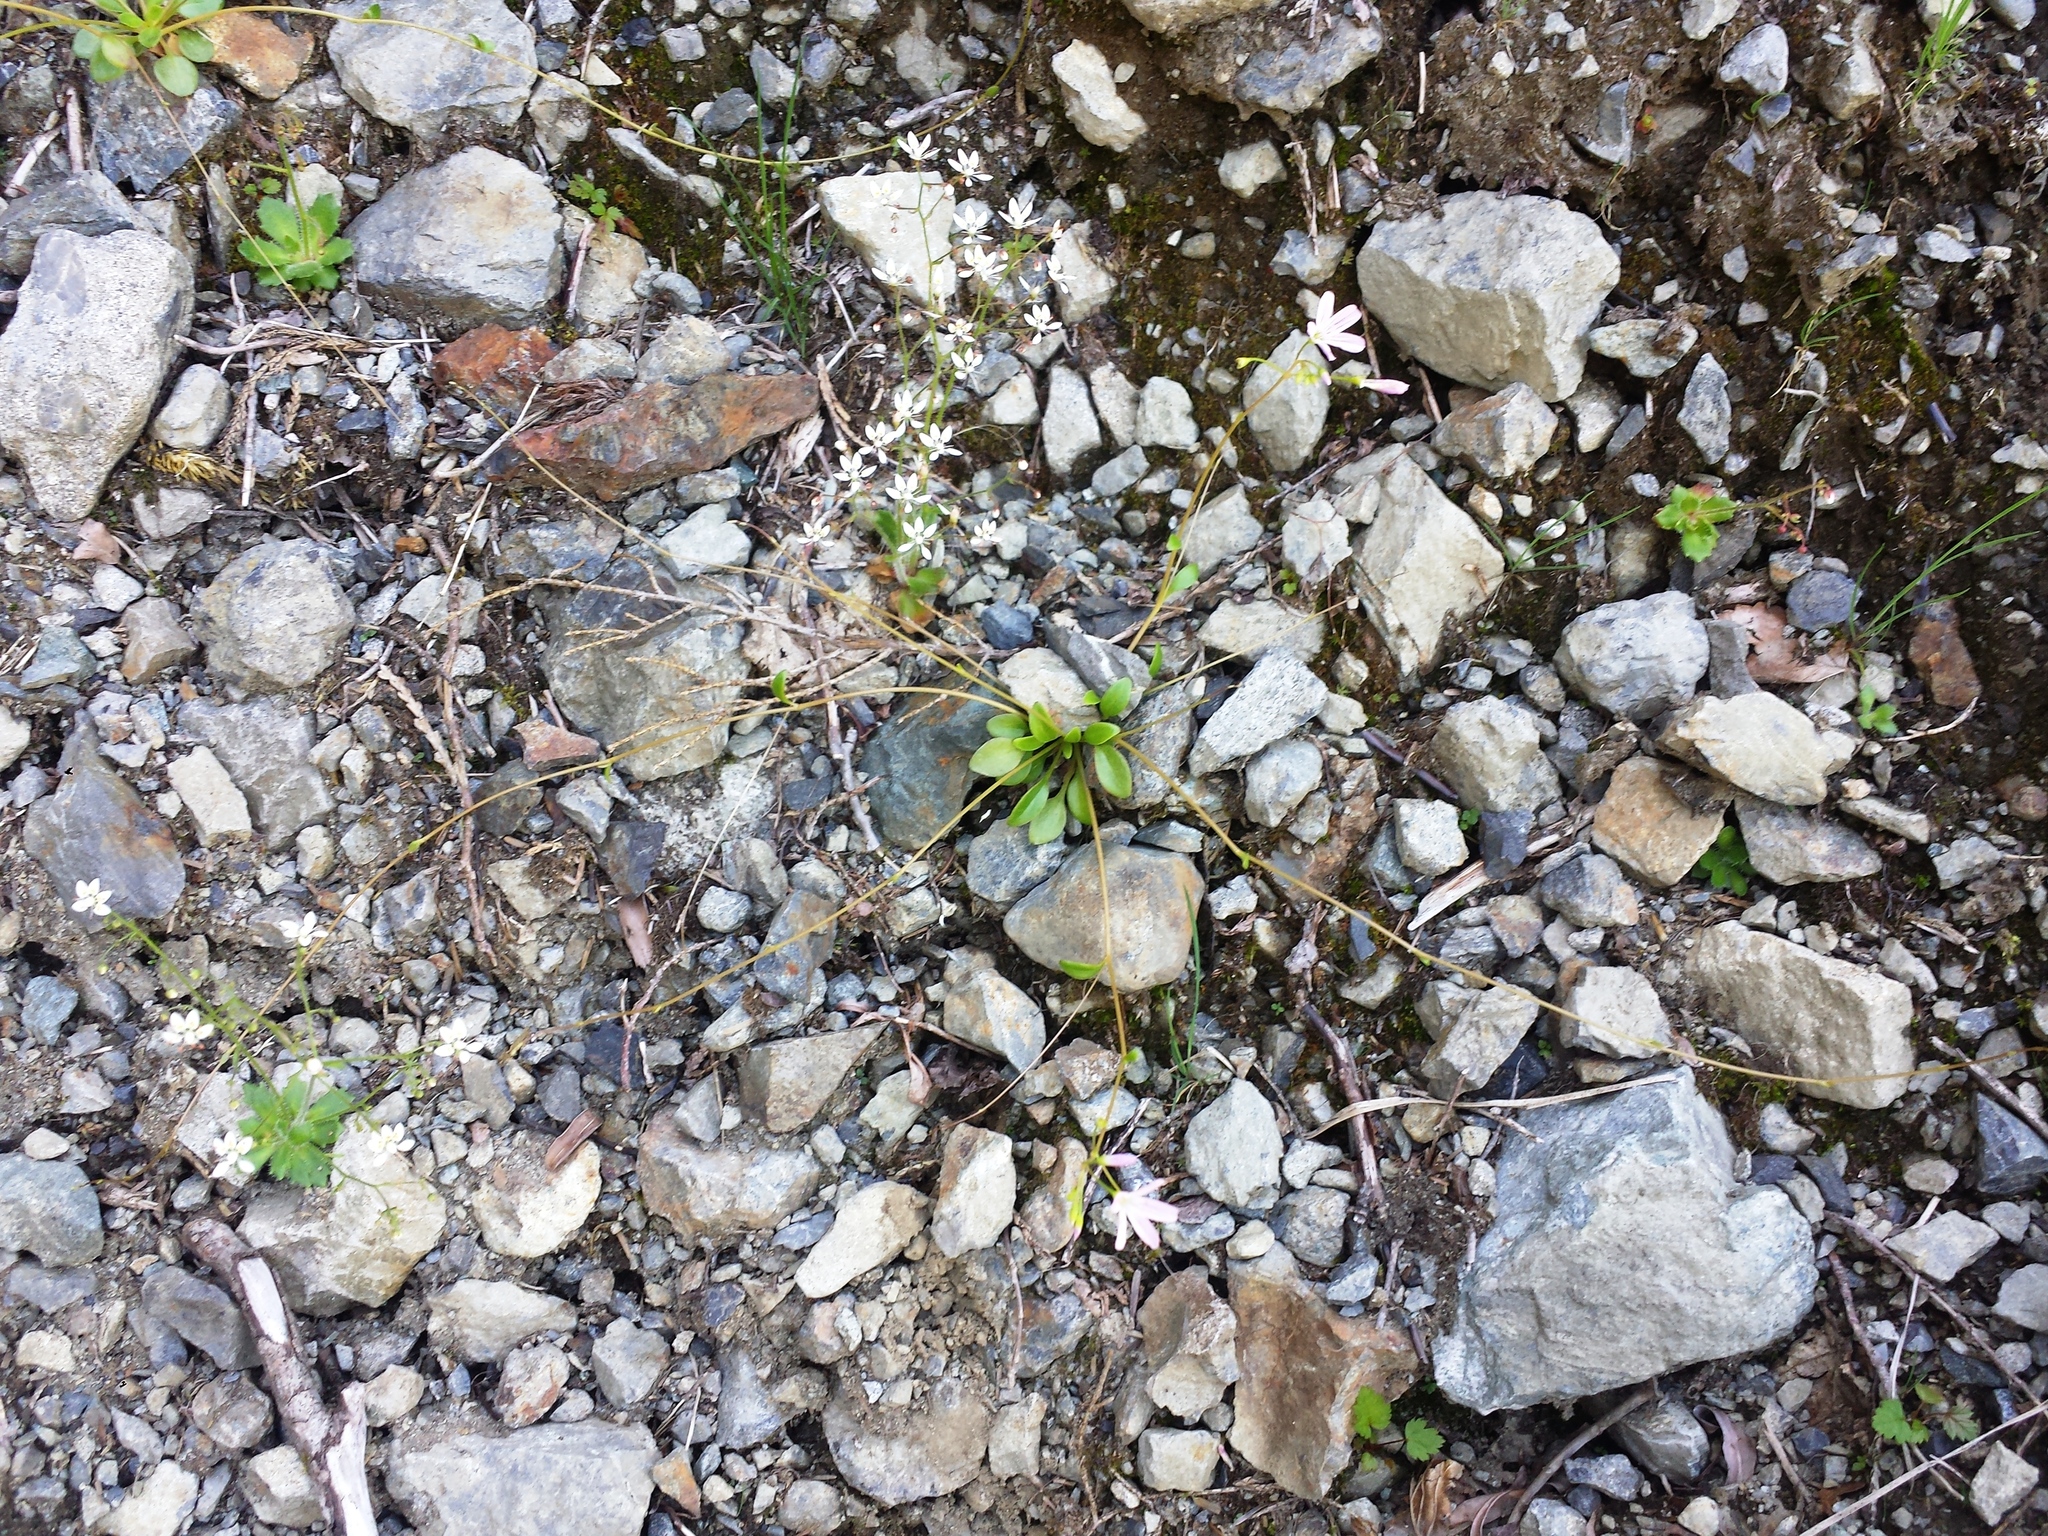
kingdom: Plantae
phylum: Tracheophyta
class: Magnoliopsida
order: Caryophyllales
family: Montiaceae
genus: Montia
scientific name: Montia parvifolia
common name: Small-leaved blinks
